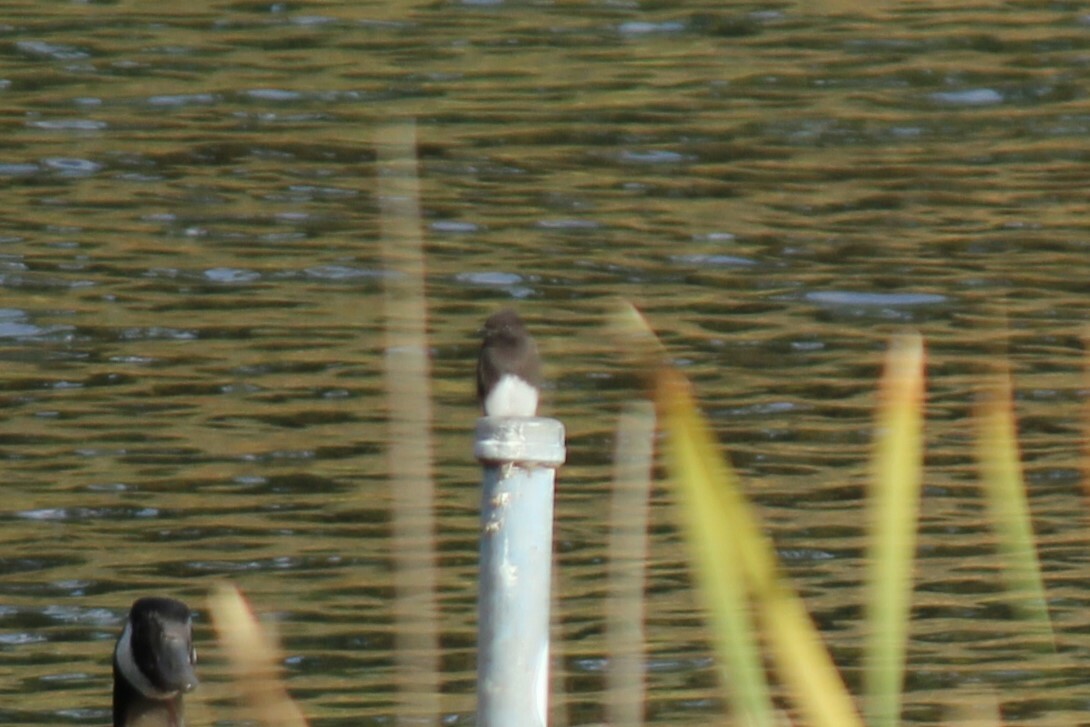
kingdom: Animalia
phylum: Chordata
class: Aves
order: Passeriformes
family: Tyrannidae
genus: Sayornis
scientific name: Sayornis nigricans
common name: Black phoebe
